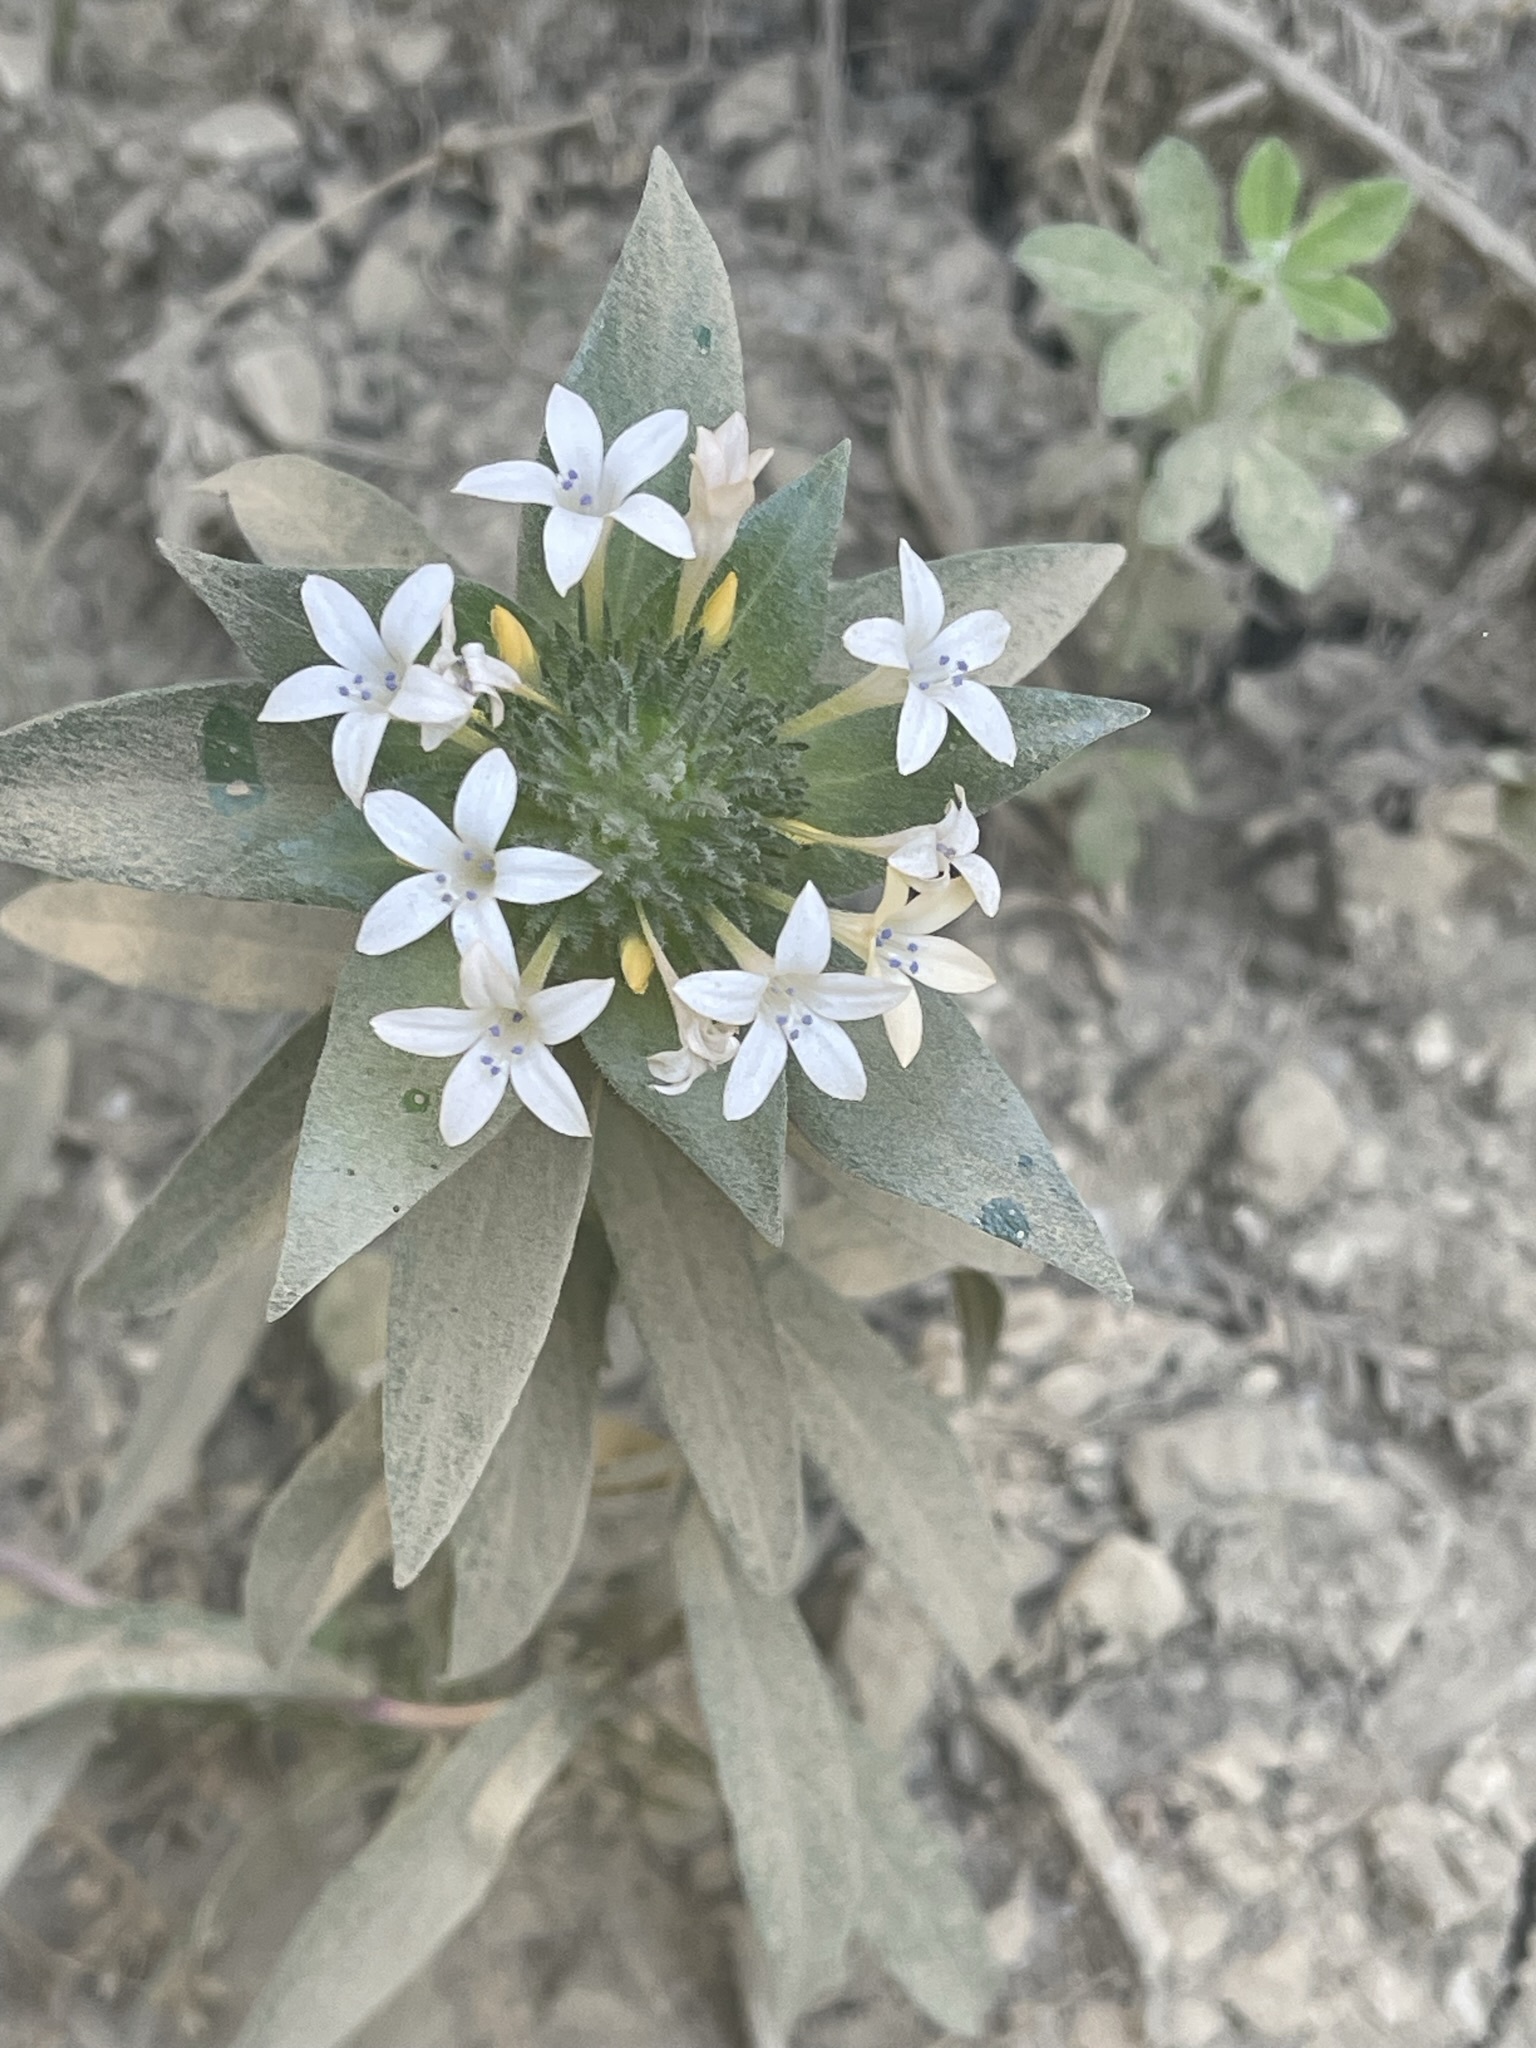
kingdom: Plantae
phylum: Tracheophyta
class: Magnoliopsida
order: Ericales
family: Polemoniaceae
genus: Collomia
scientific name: Collomia grandiflora
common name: California strawflower
